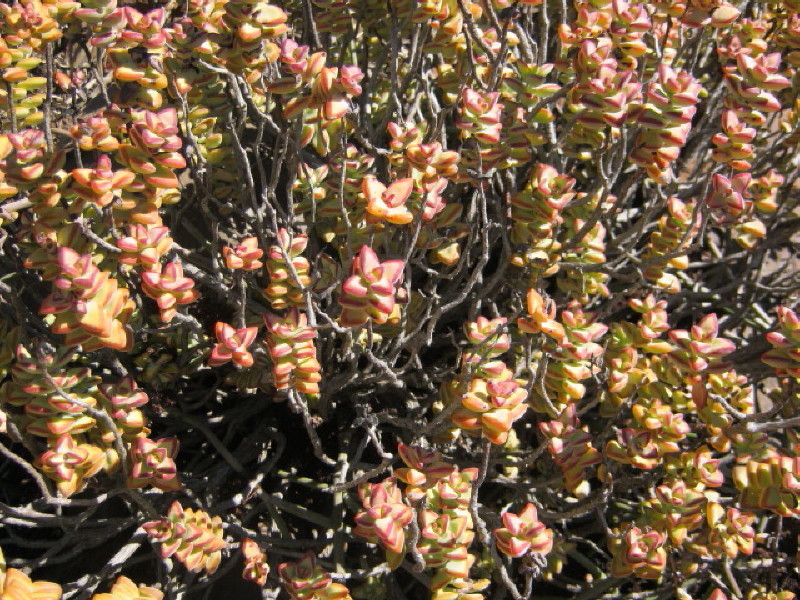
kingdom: Plantae
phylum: Tracheophyta
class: Magnoliopsida
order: Saxifragales
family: Crassulaceae
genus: Crassula
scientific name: Crassula rupestris
